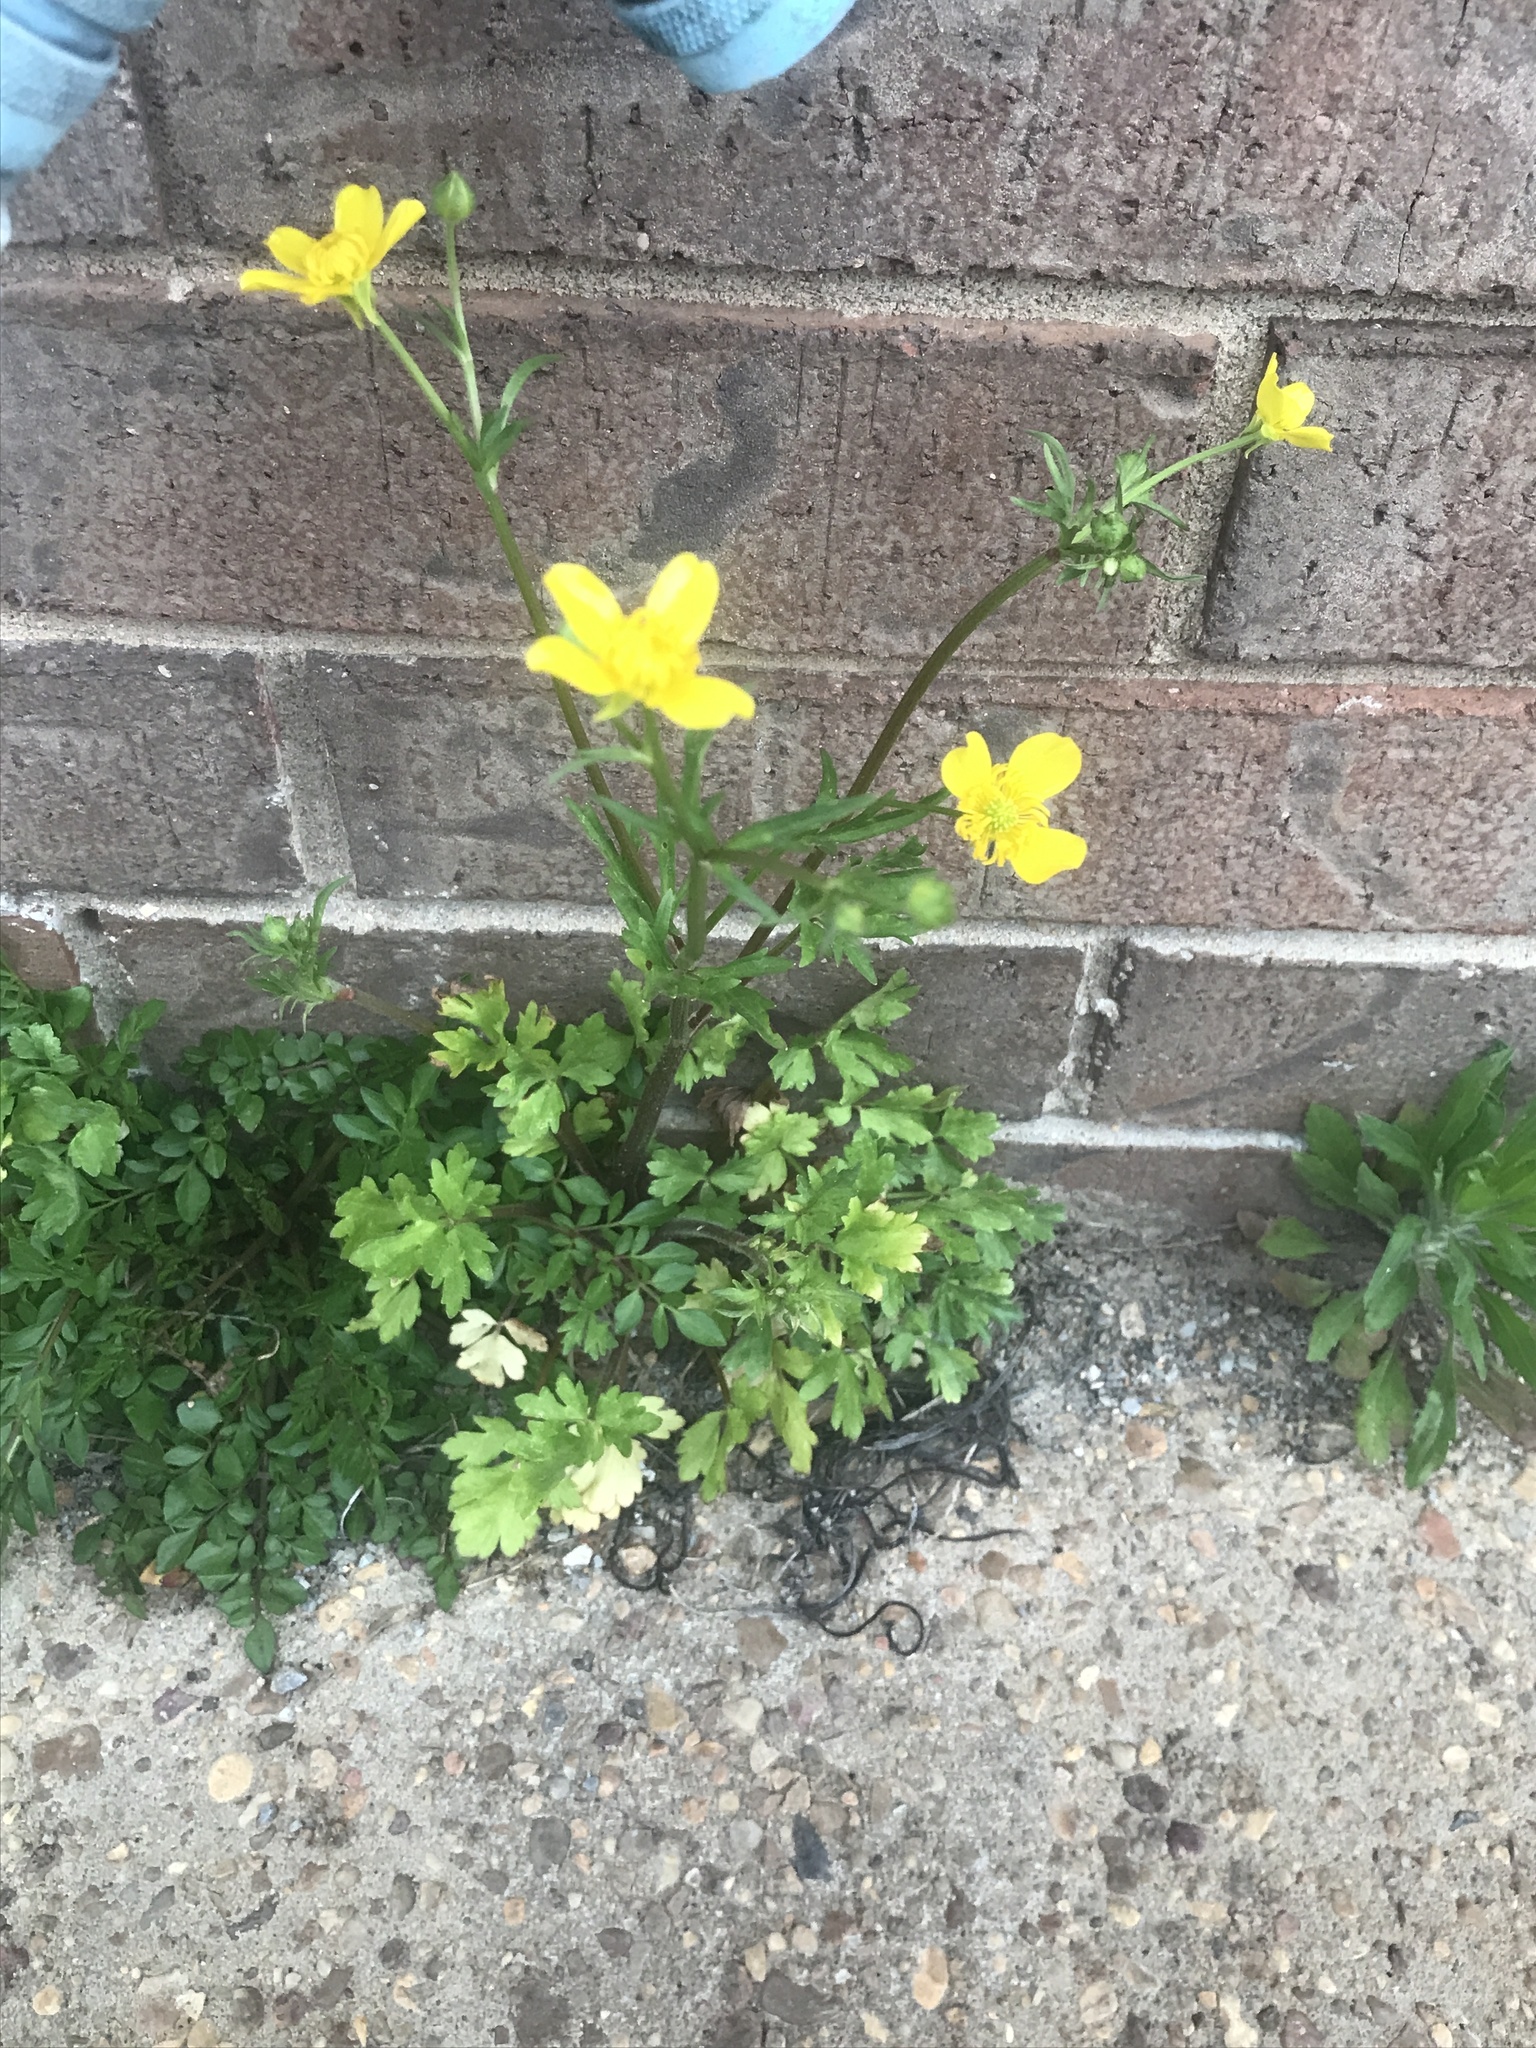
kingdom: Plantae
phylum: Tracheophyta
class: Magnoliopsida
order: Ranunculales
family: Ranunculaceae
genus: Ranunculus
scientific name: Ranunculus bulbosus
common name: Bulbous buttercup
